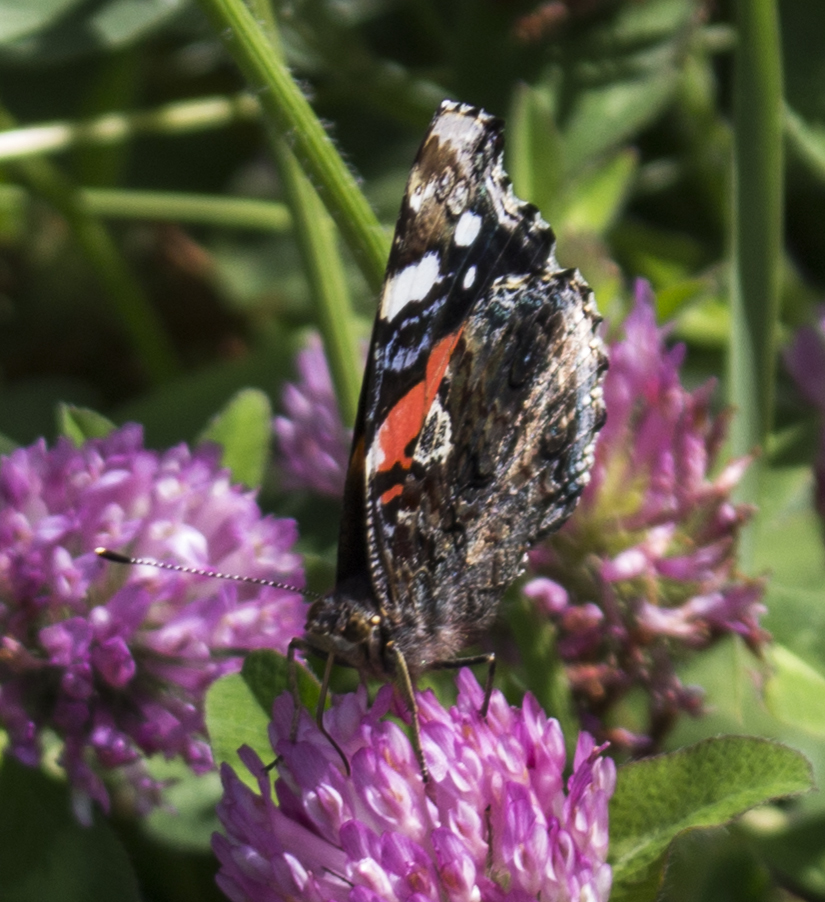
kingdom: Animalia
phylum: Arthropoda
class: Insecta
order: Lepidoptera
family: Nymphalidae
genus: Vanessa
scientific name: Vanessa atalanta
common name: Red admiral
